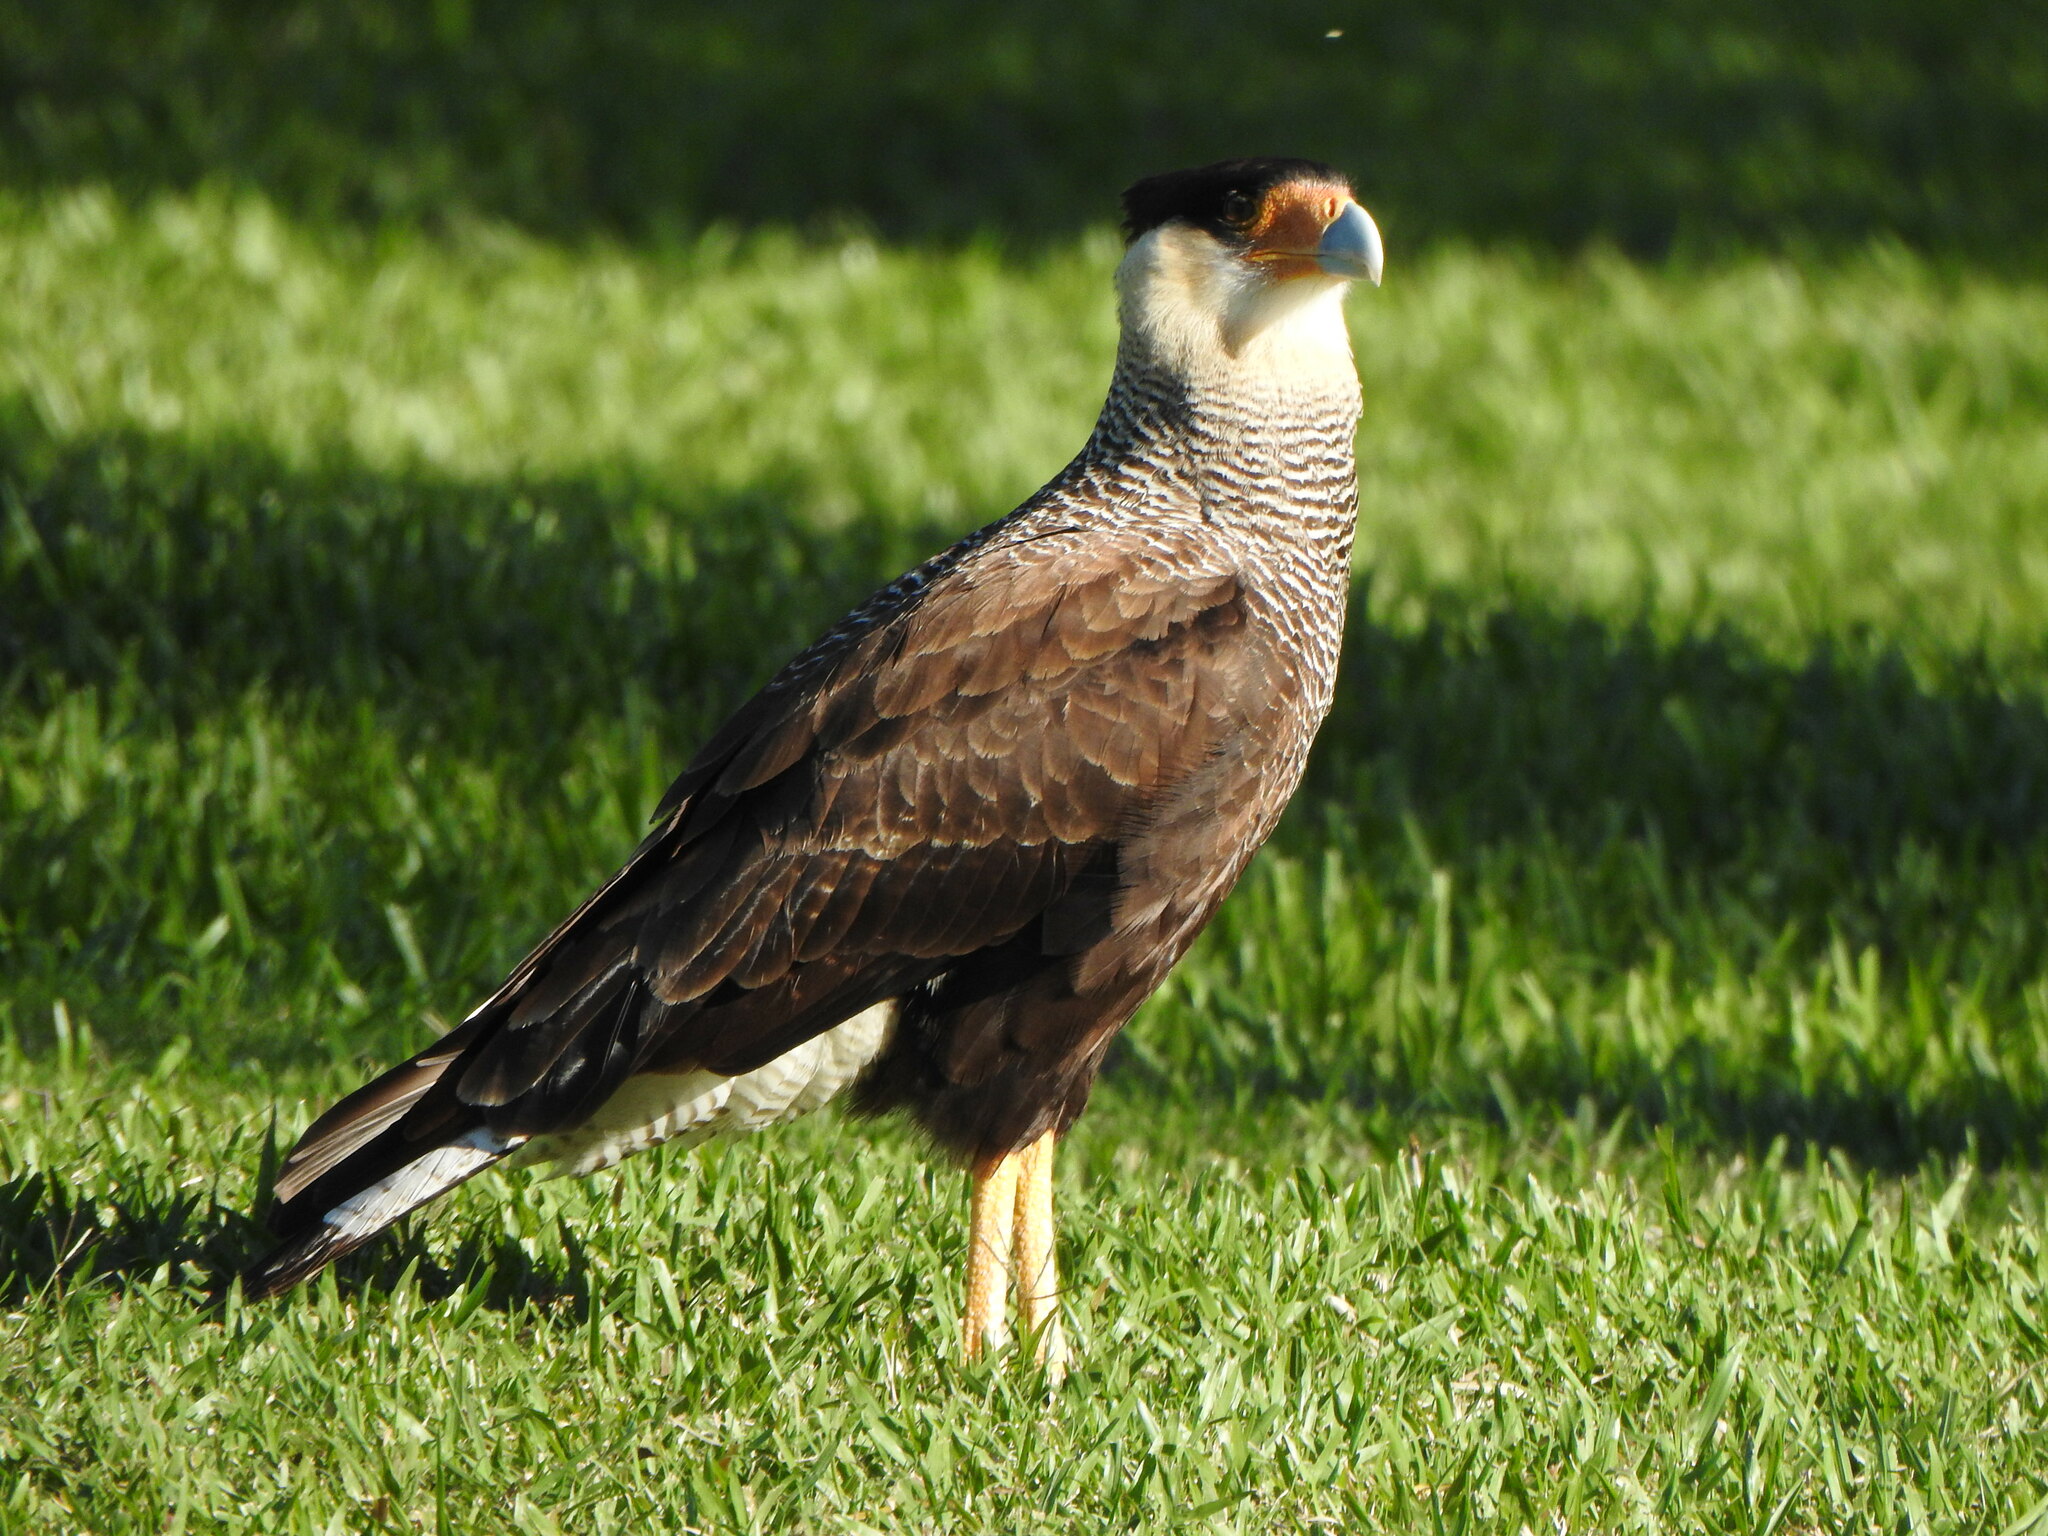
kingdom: Animalia
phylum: Chordata
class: Aves
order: Falconiformes
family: Falconidae
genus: Caracara
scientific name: Caracara plancus
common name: Southern caracara
